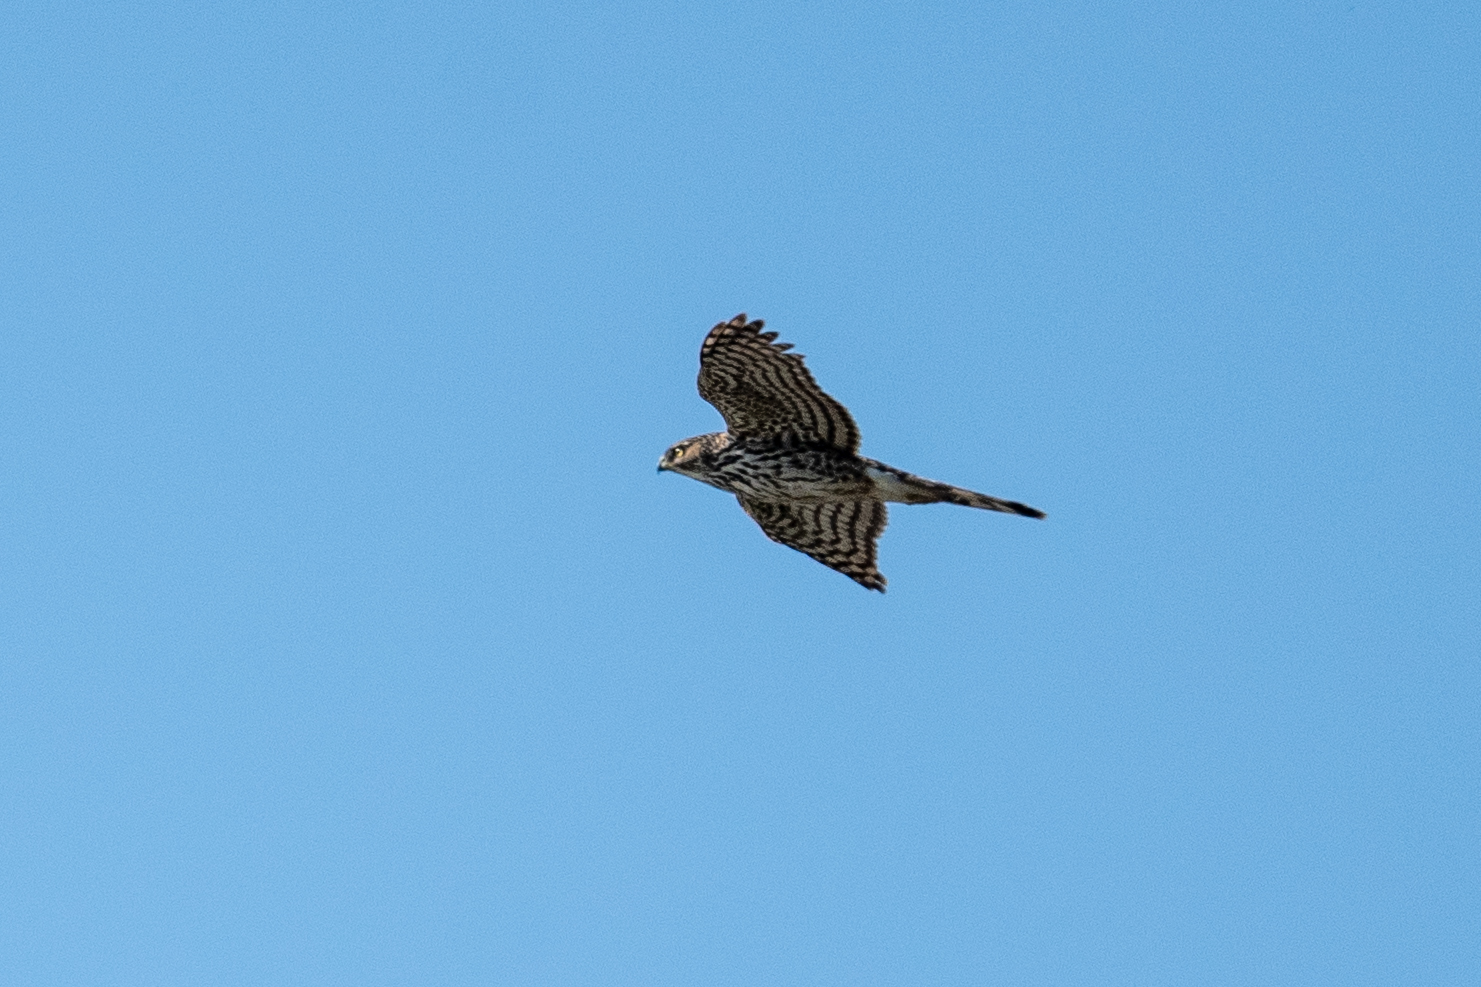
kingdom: Animalia
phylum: Chordata
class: Aves
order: Accipitriformes
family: Accipitridae
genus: Accipiter
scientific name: Accipiter cooperii
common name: Cooper's hawk
